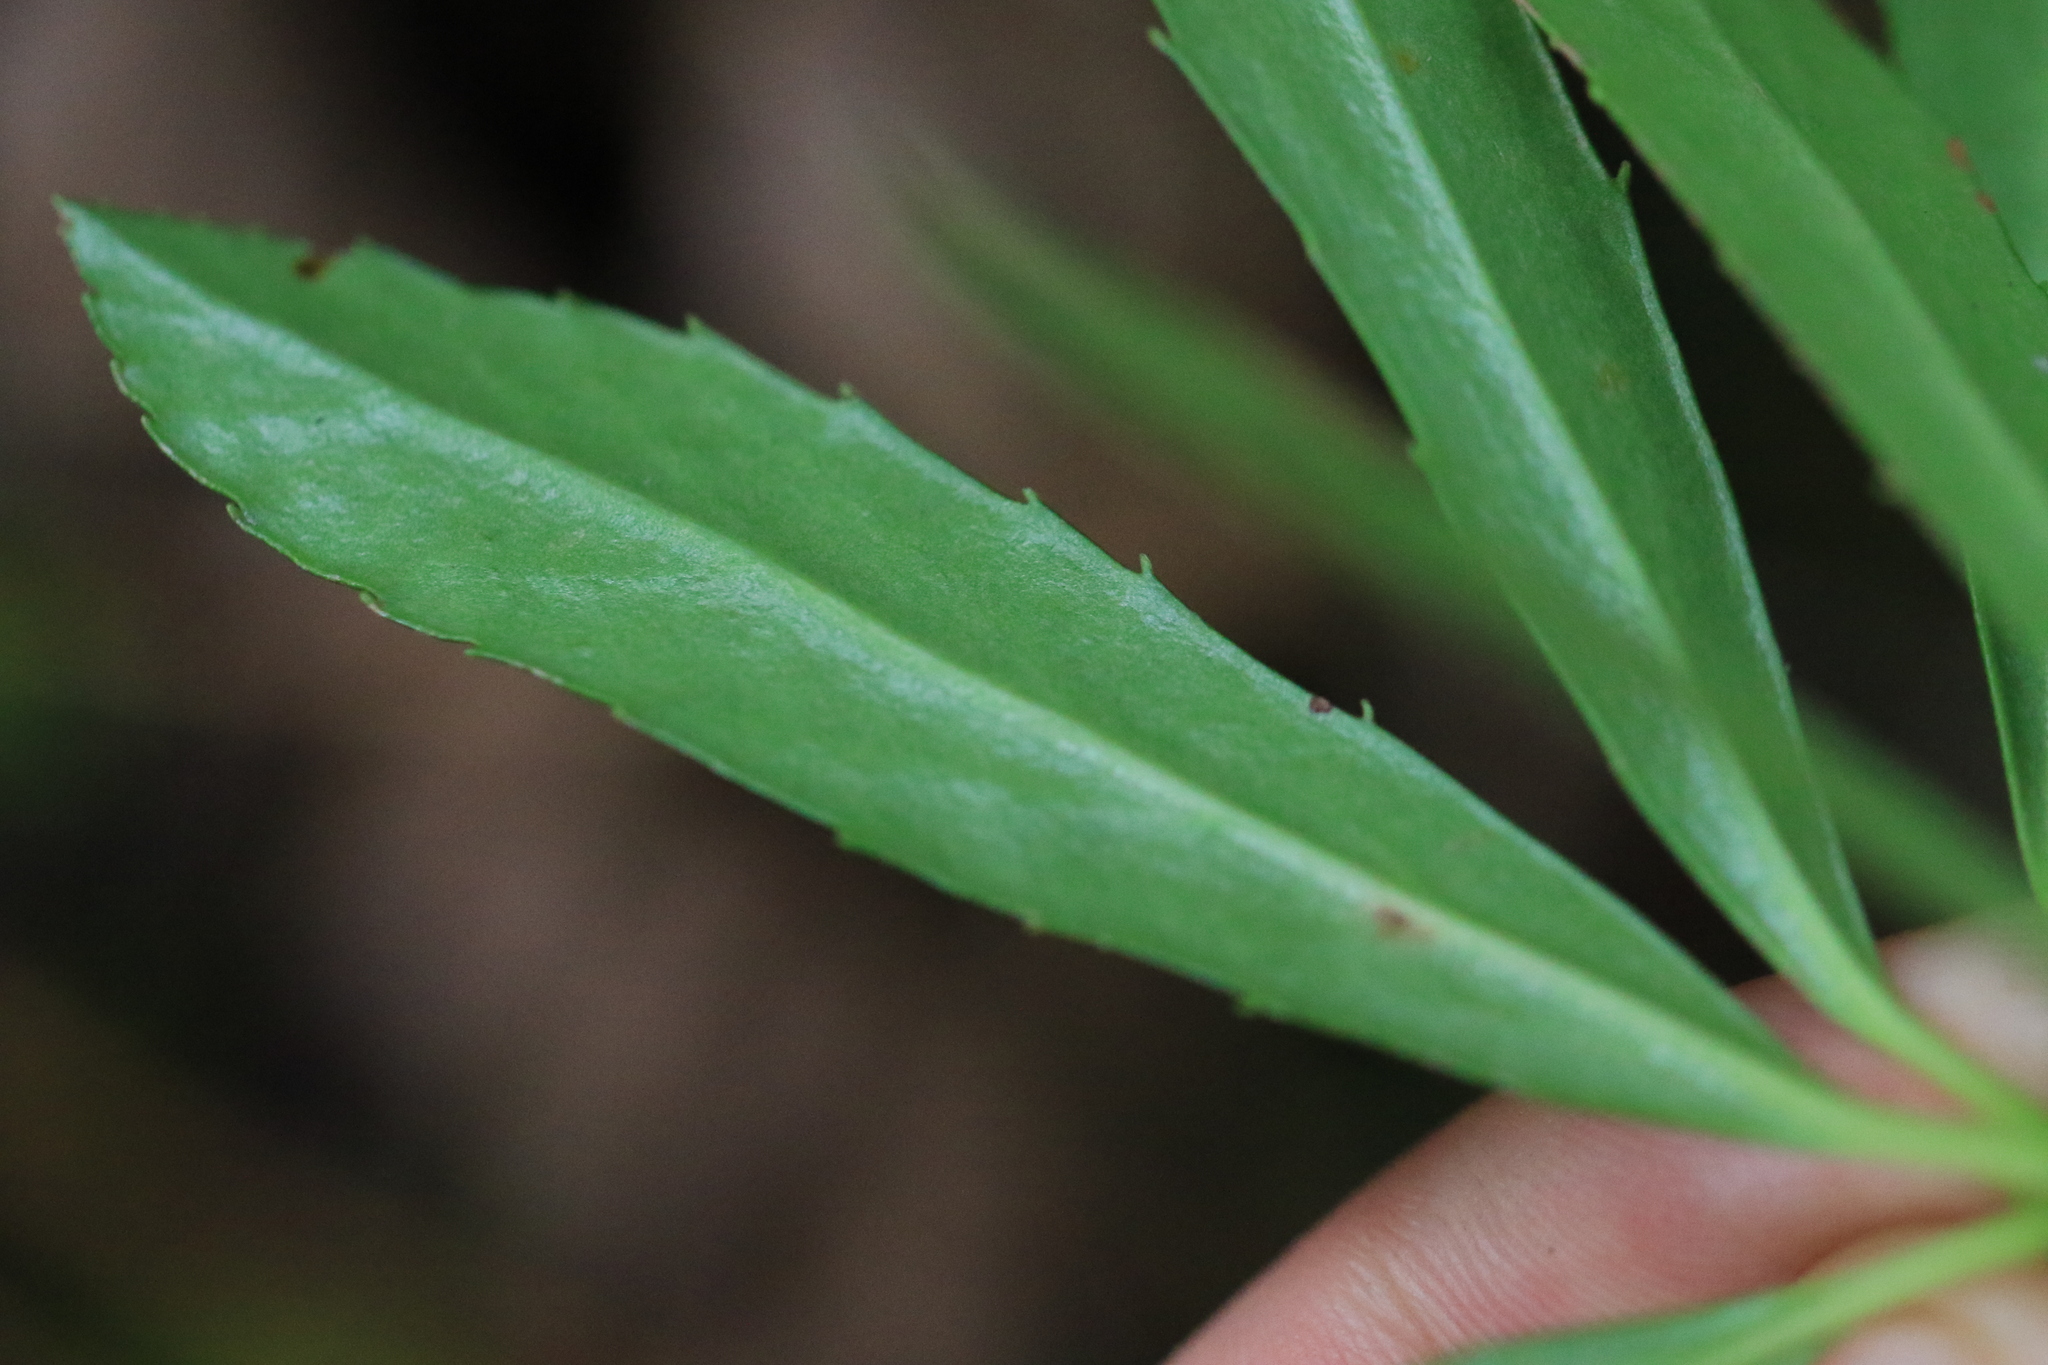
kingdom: Plantae
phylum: Tracheophyta
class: Magnoliopsida
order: Ericales
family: Ericaceae
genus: Chimaphila
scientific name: Chimaphila umbellata
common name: Pipsissewa
